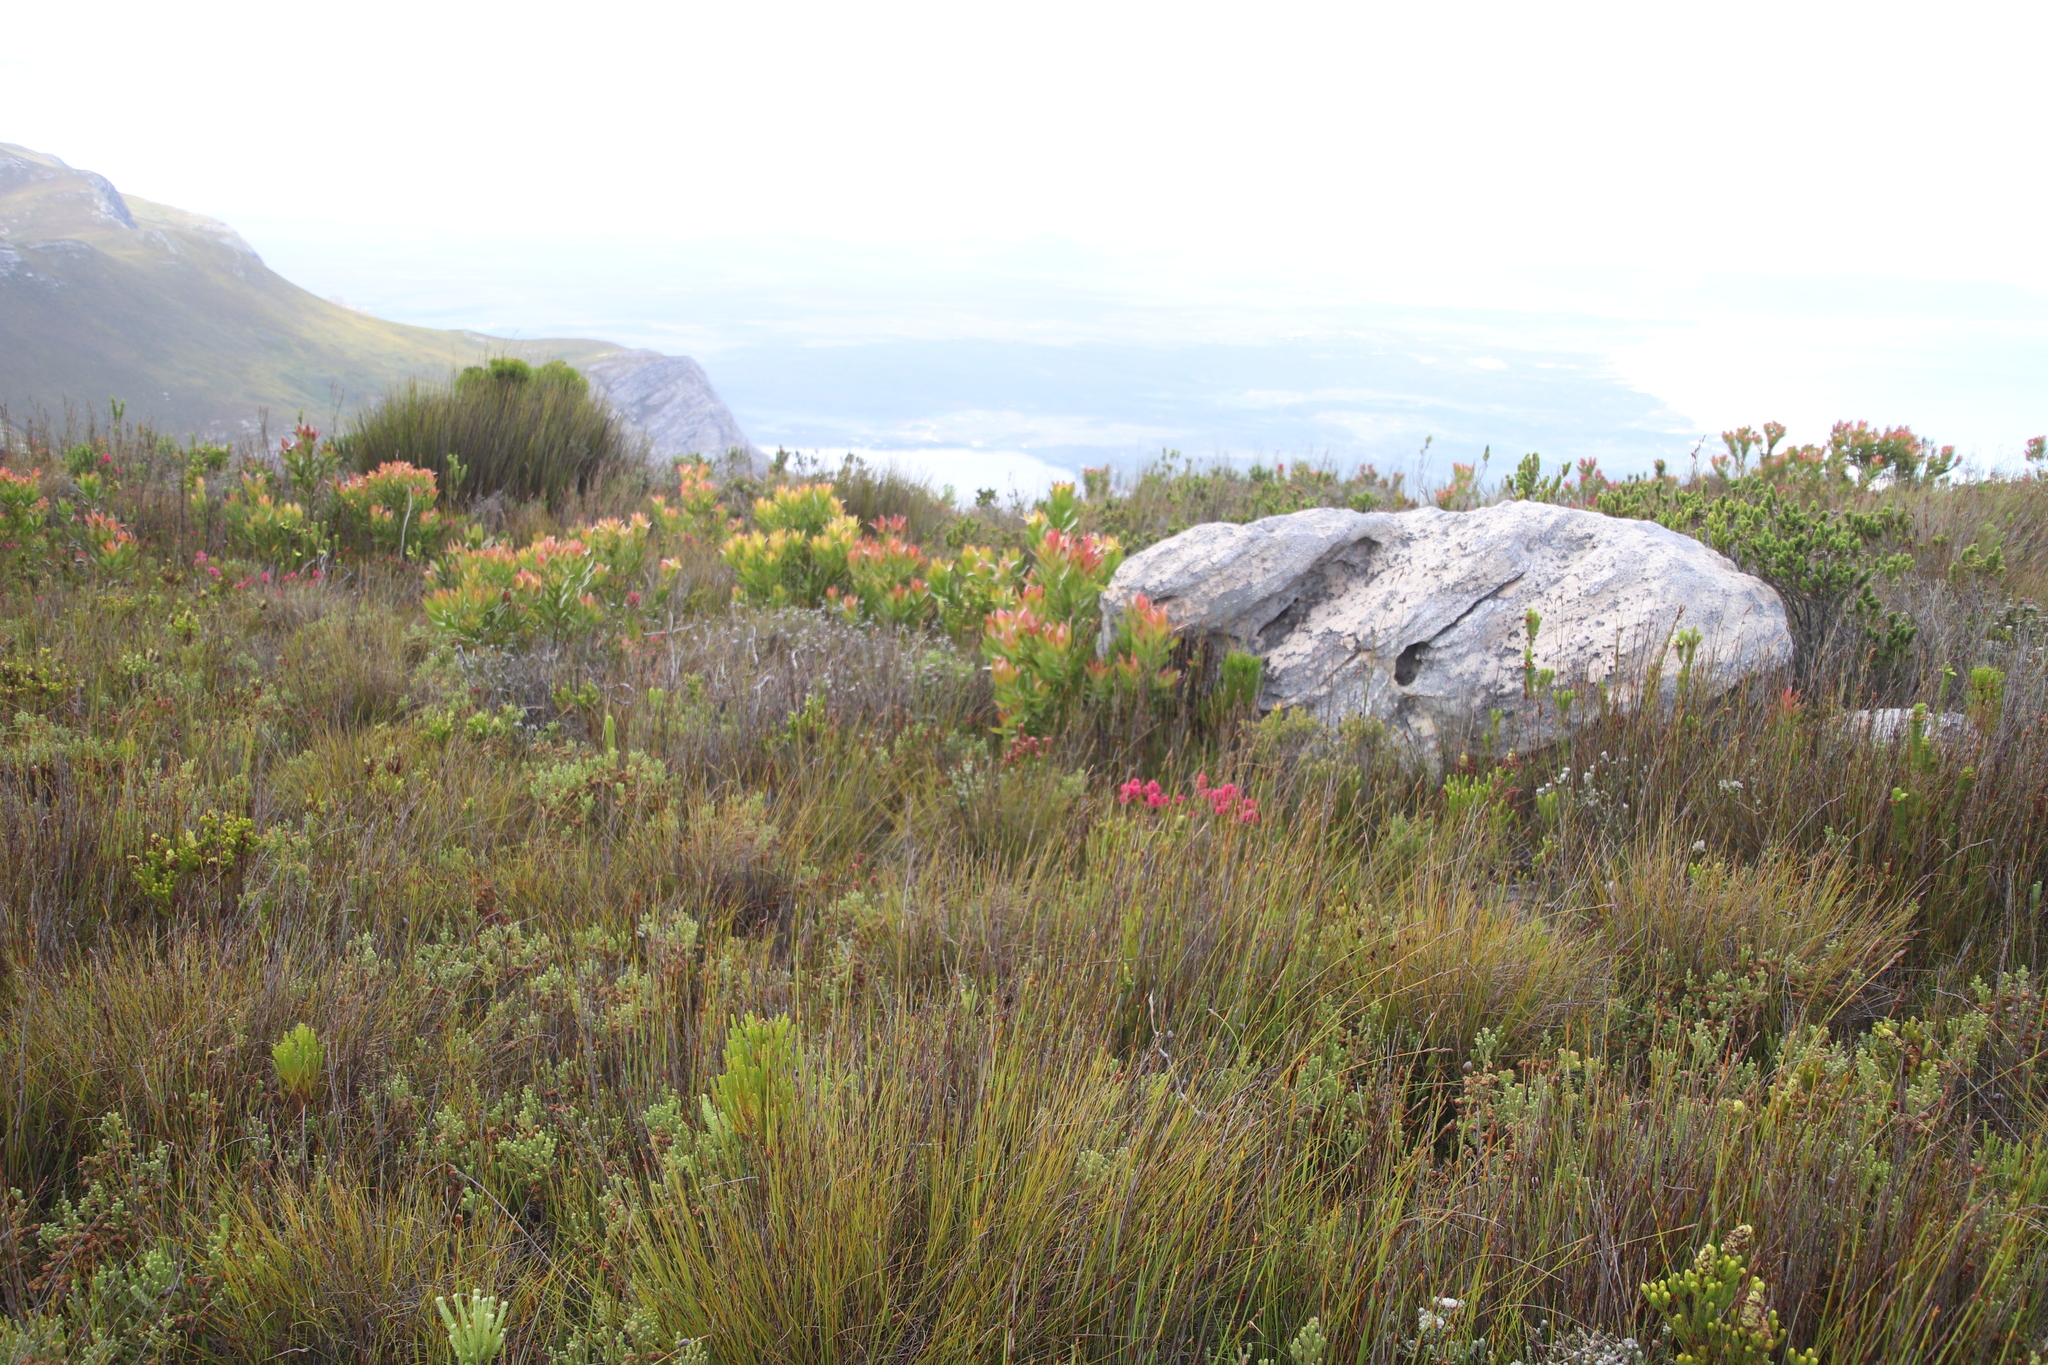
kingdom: Plantae
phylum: Tracheophyta
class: Magnoliopsida
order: Proteales
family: Proteaceae
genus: Leucadendron
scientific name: Leucadendron gandogeri
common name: Broad-leaf conebush
